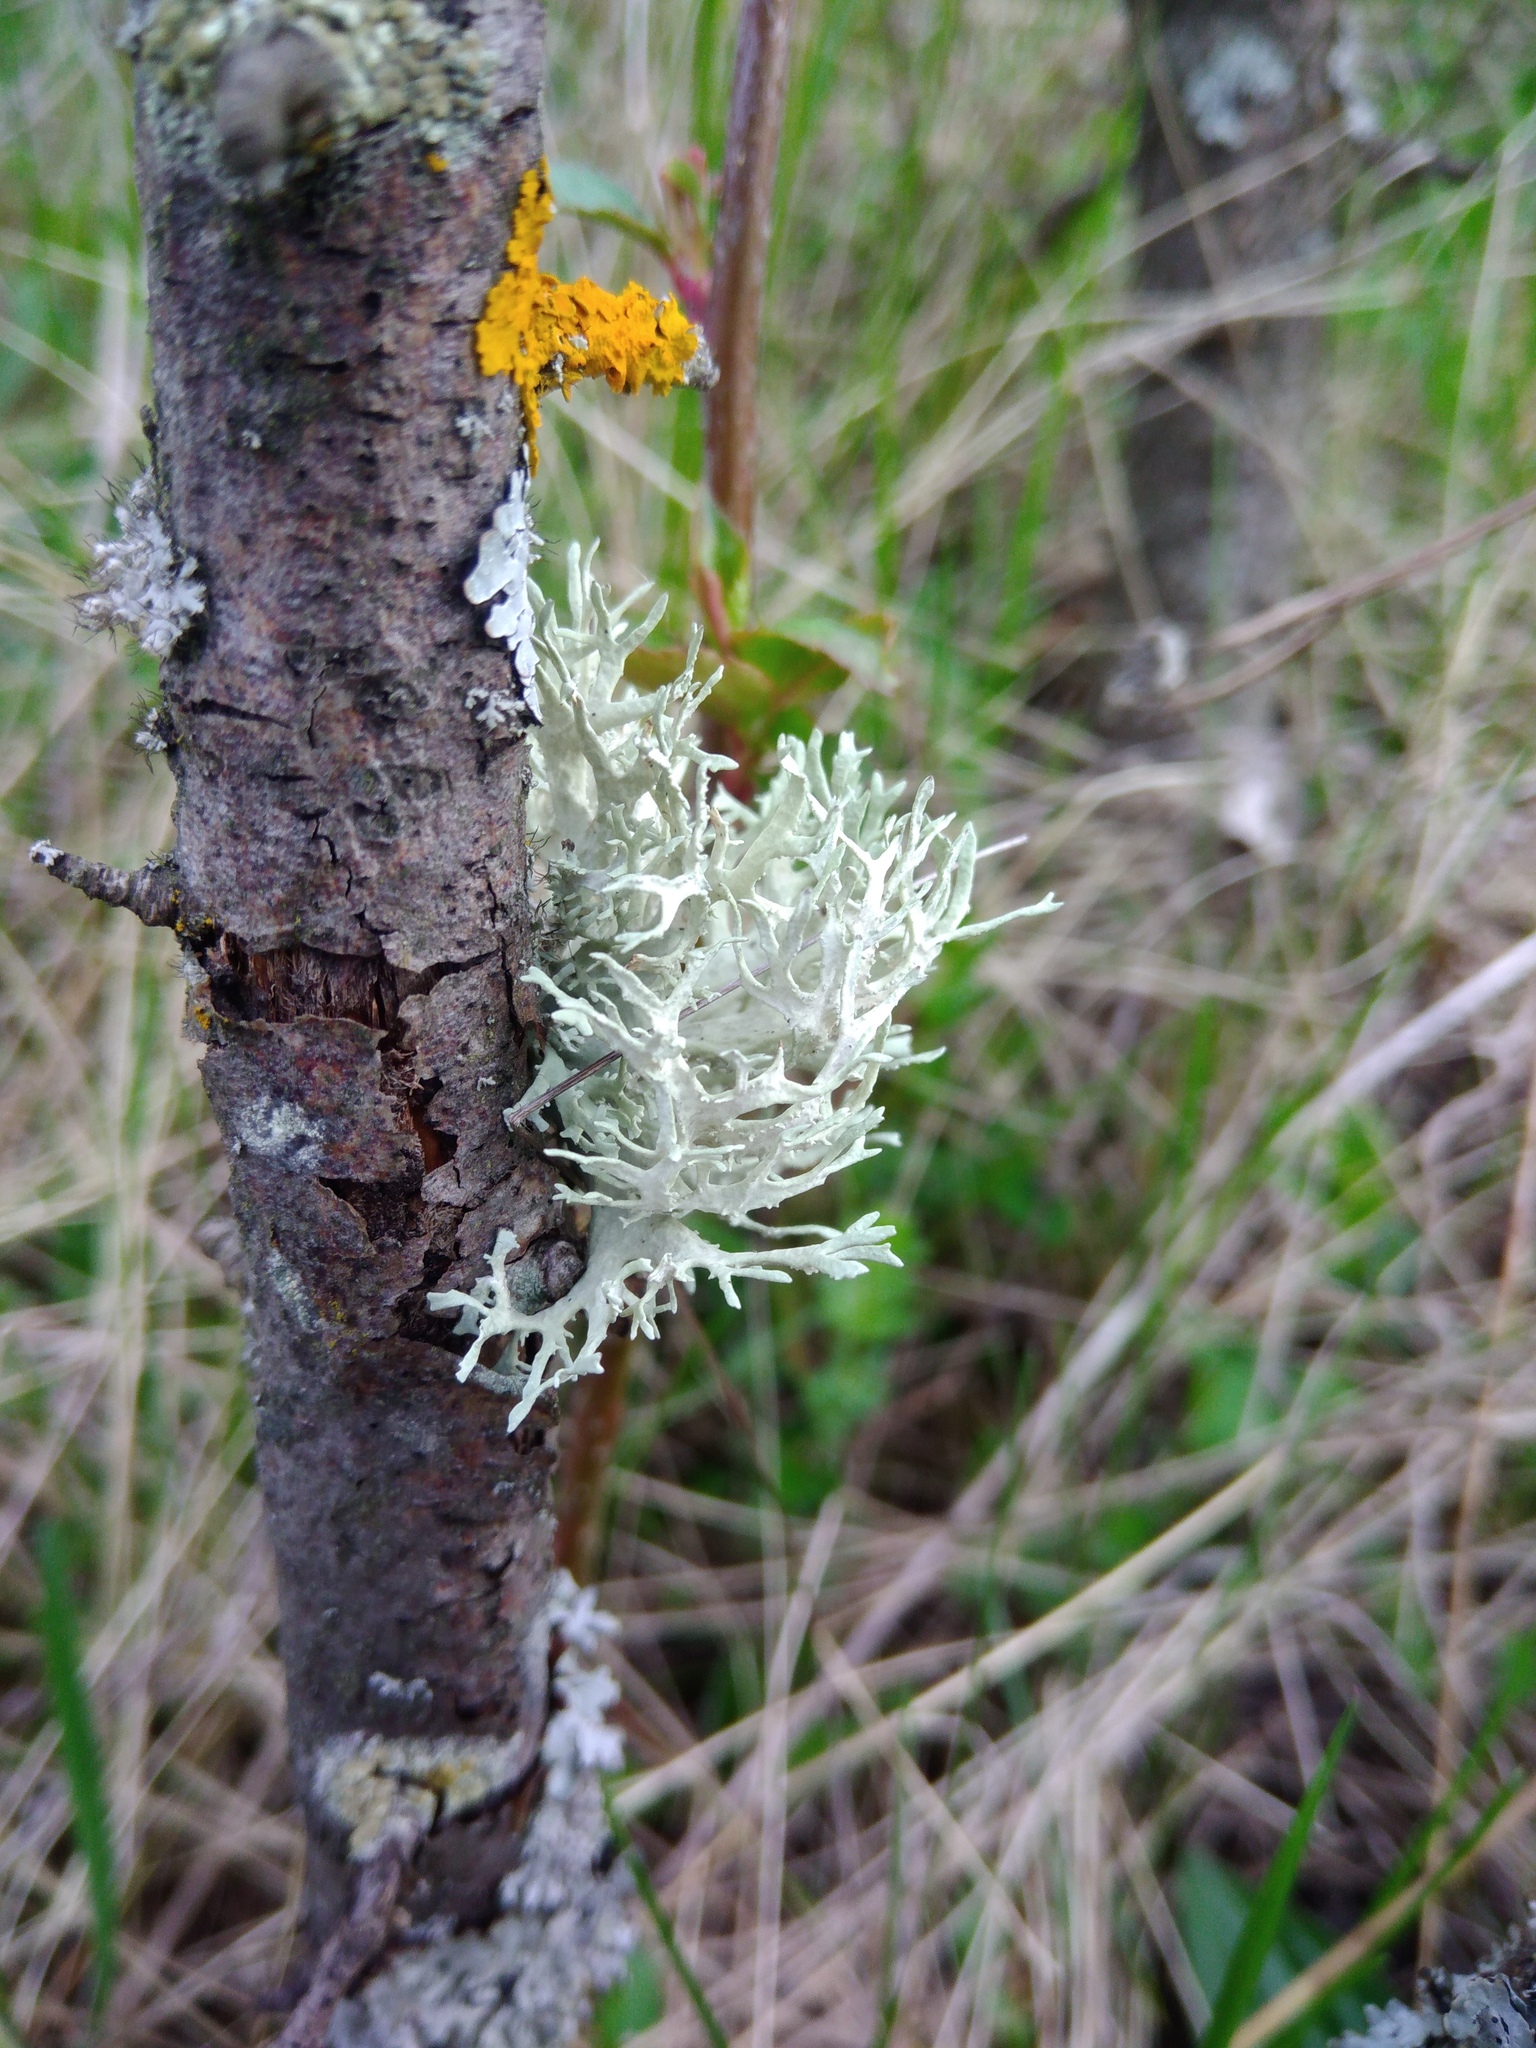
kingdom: Fungi
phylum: Ascomycota
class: Lecanoromycetes
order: Lecanorales
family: Parmeliaceae
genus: Evernia
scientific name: Evernia prunastri
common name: Oak moss
